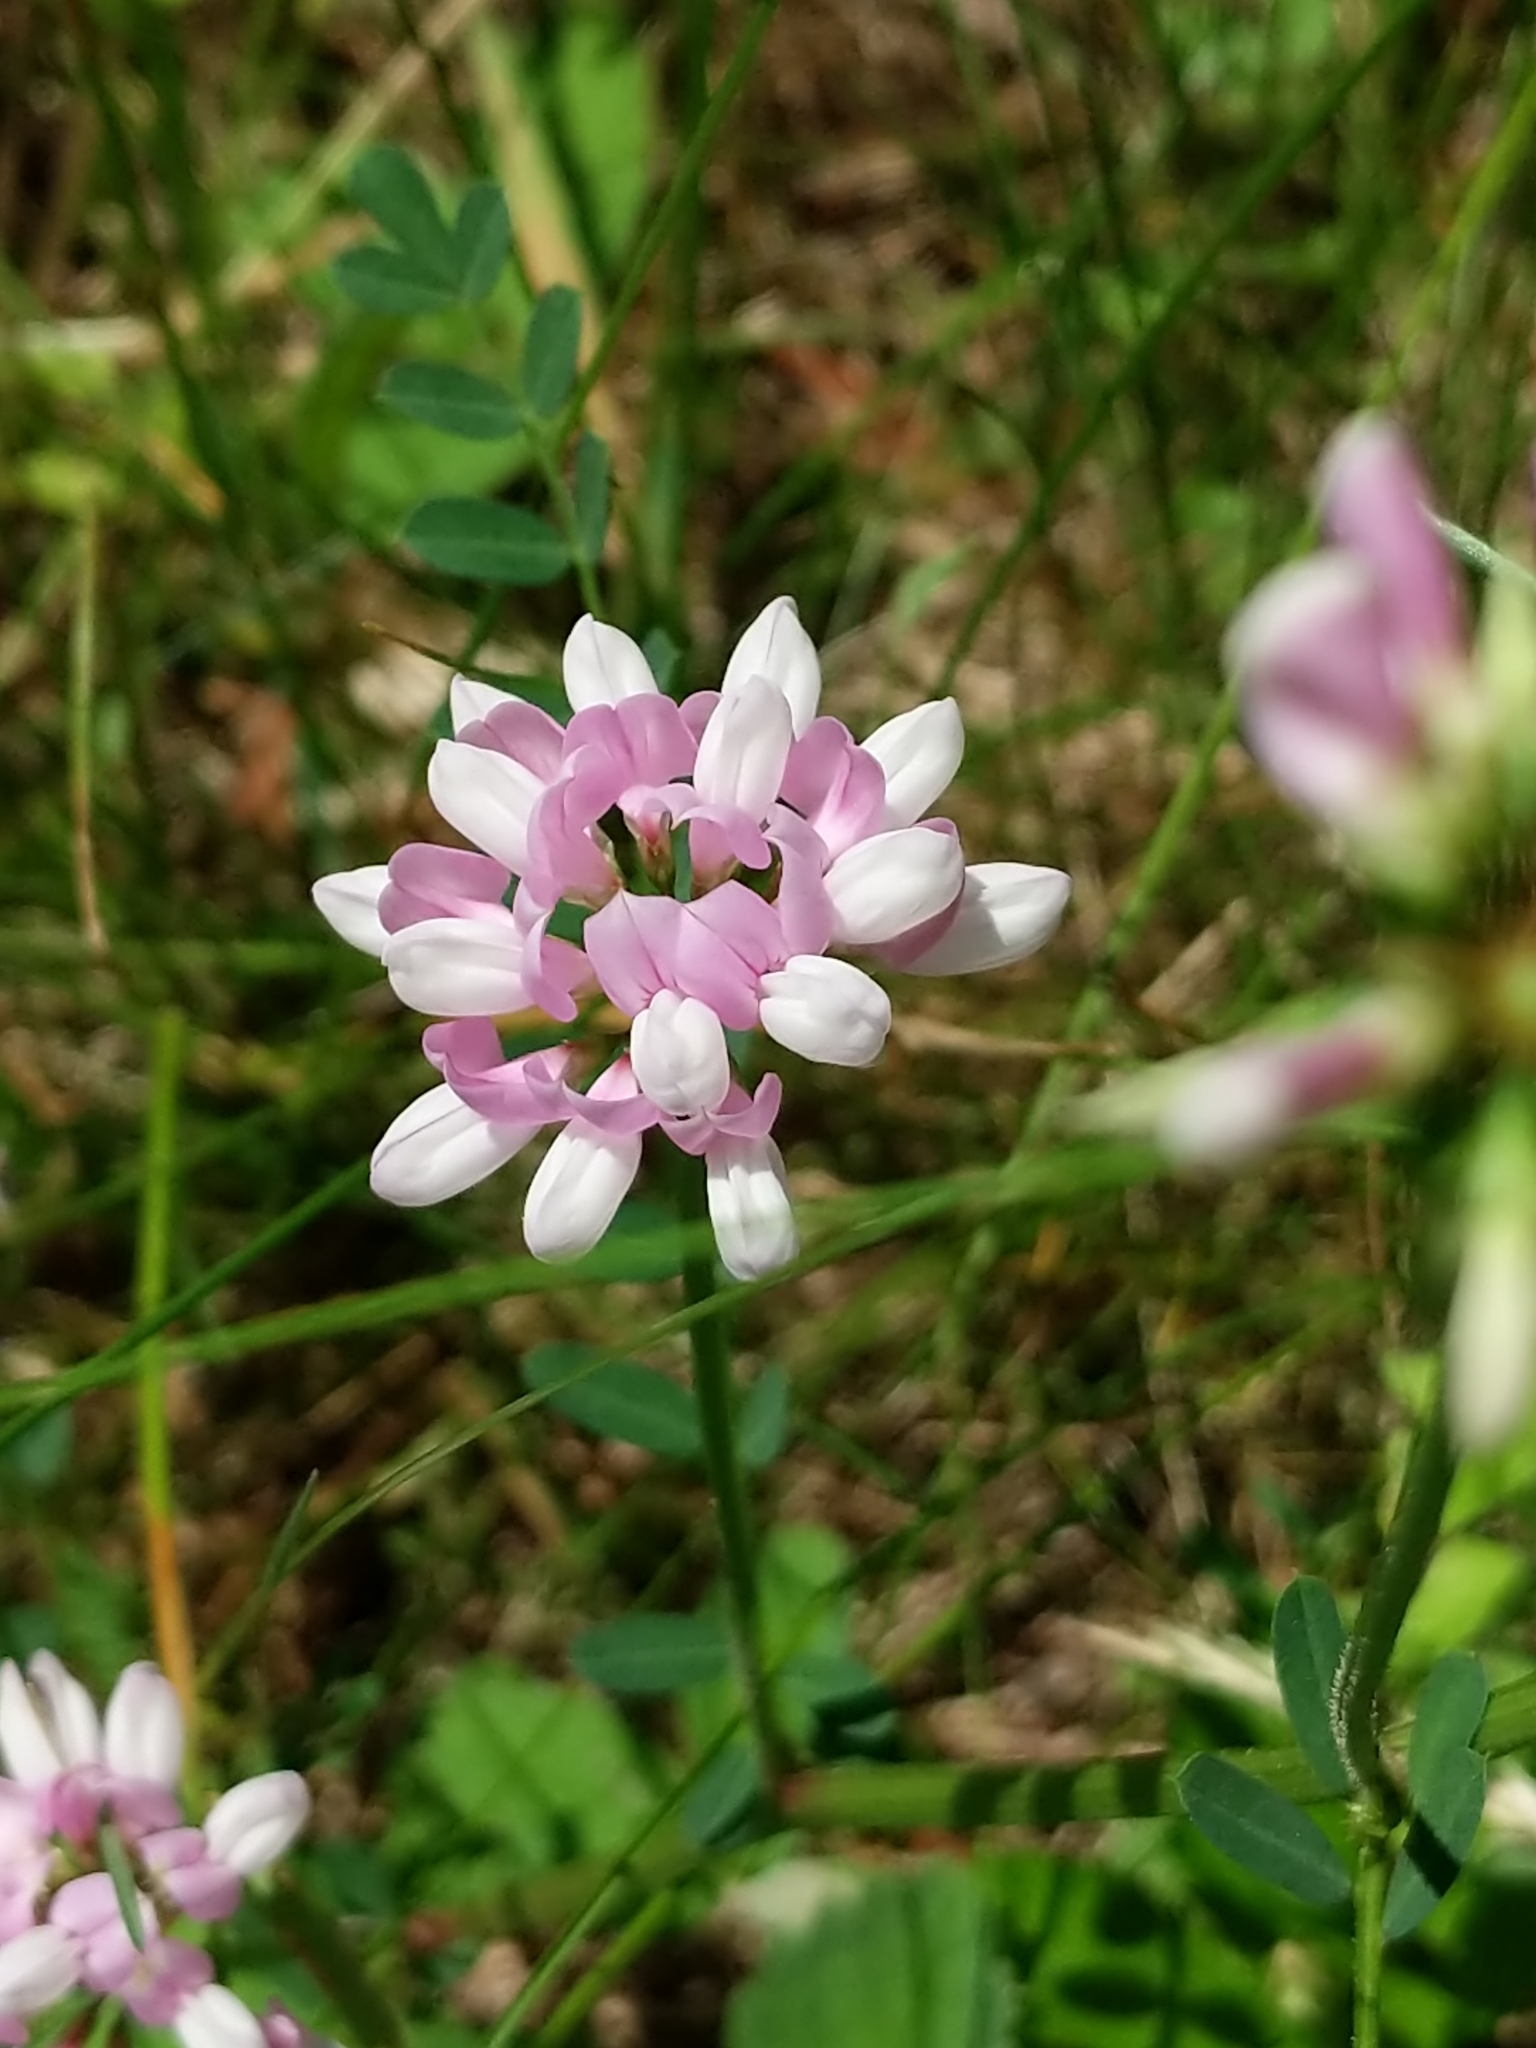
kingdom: Plantae
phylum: Tracheophyta
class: Magnoliopsida
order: Fabales
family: Fabaceae
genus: Coronilla
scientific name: Coronilla varia
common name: Crownvetch
